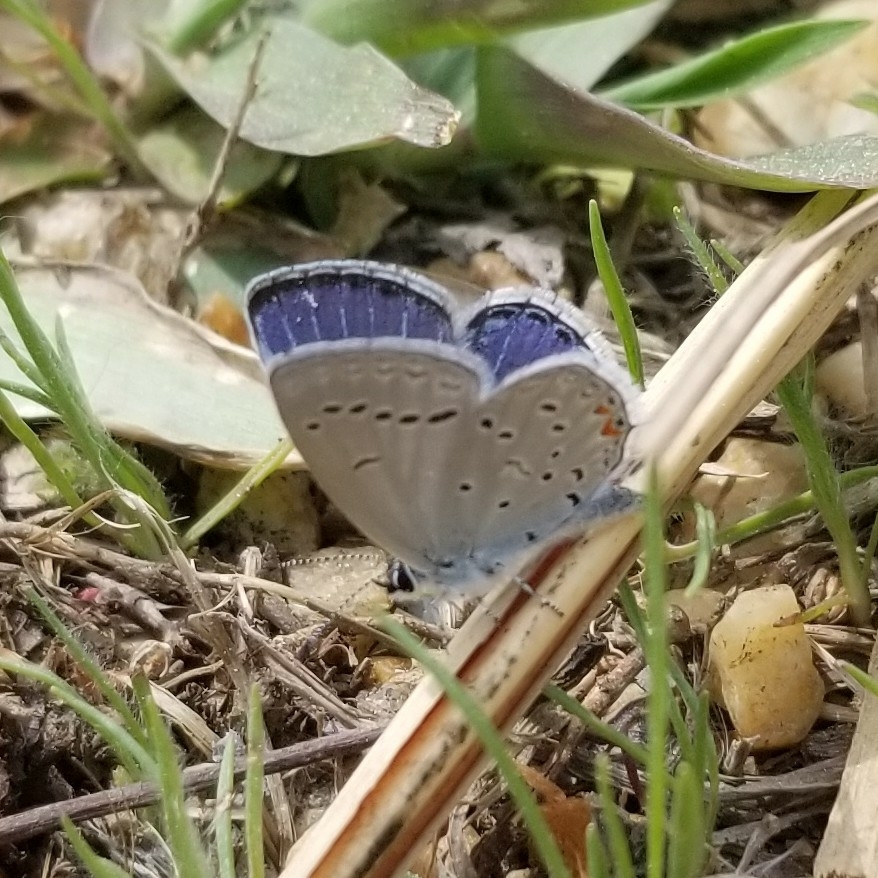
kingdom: Animalia
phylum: Arthropoda
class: Insecta
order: Lepidoptera
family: Lycaenidae
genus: Elkalyce
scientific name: Elkalyce comyntas
